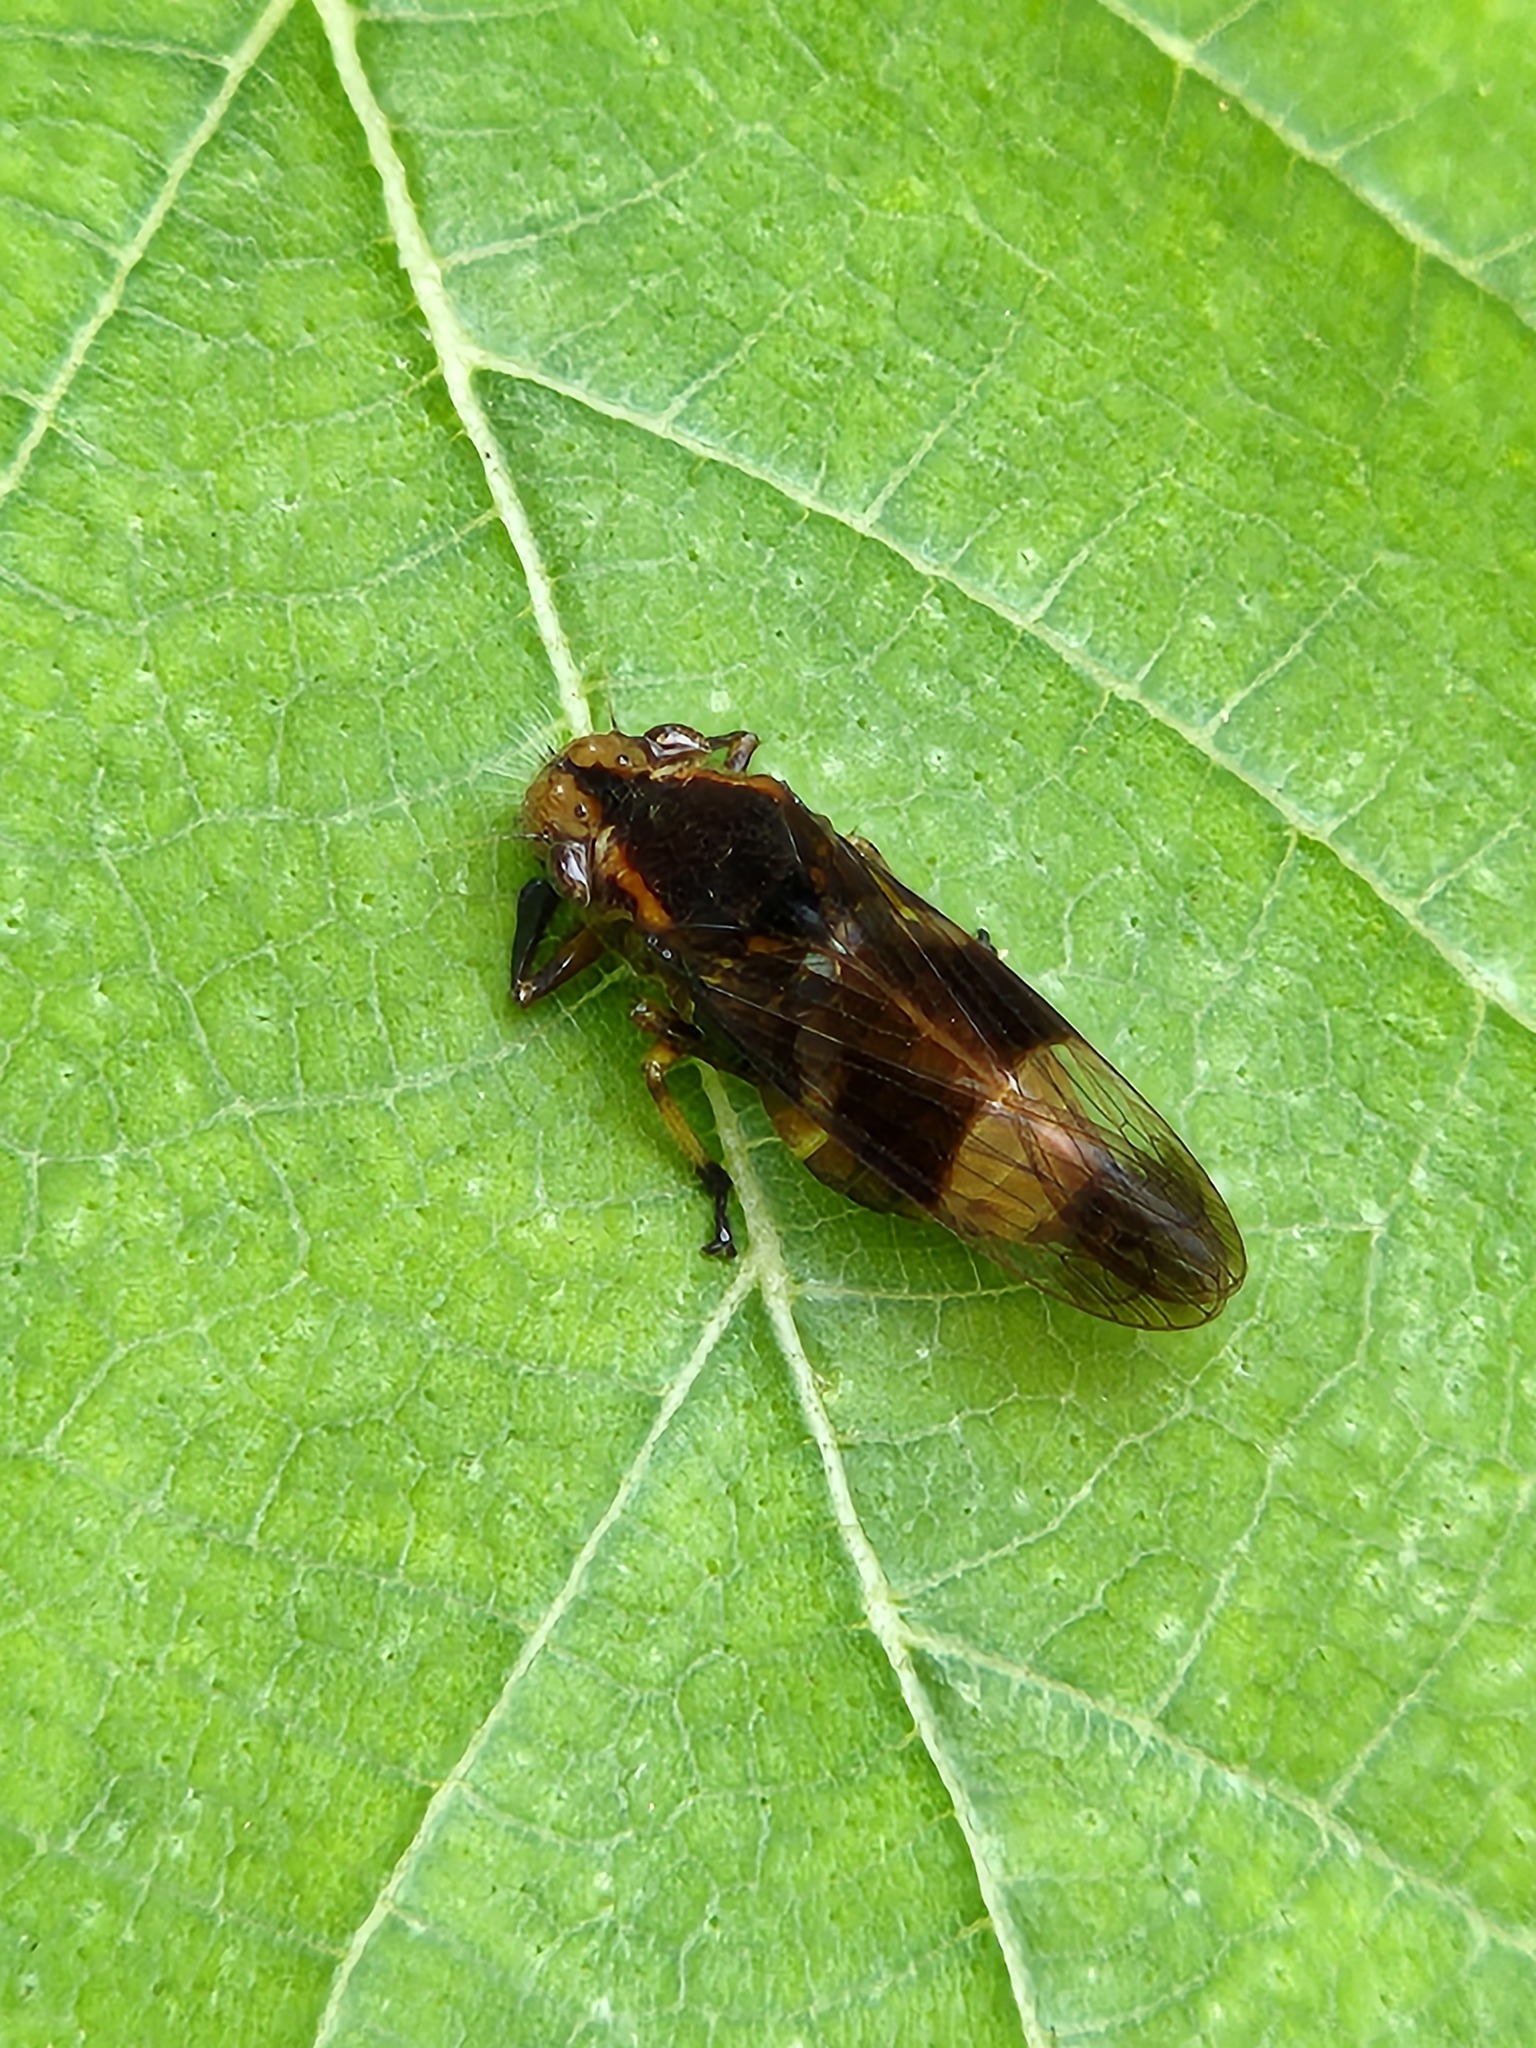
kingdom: Animalia
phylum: Arthropoda
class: Insecta
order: Hemiptera
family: Cicadellidae
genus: Teletusa
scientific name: Teletusa limpida
